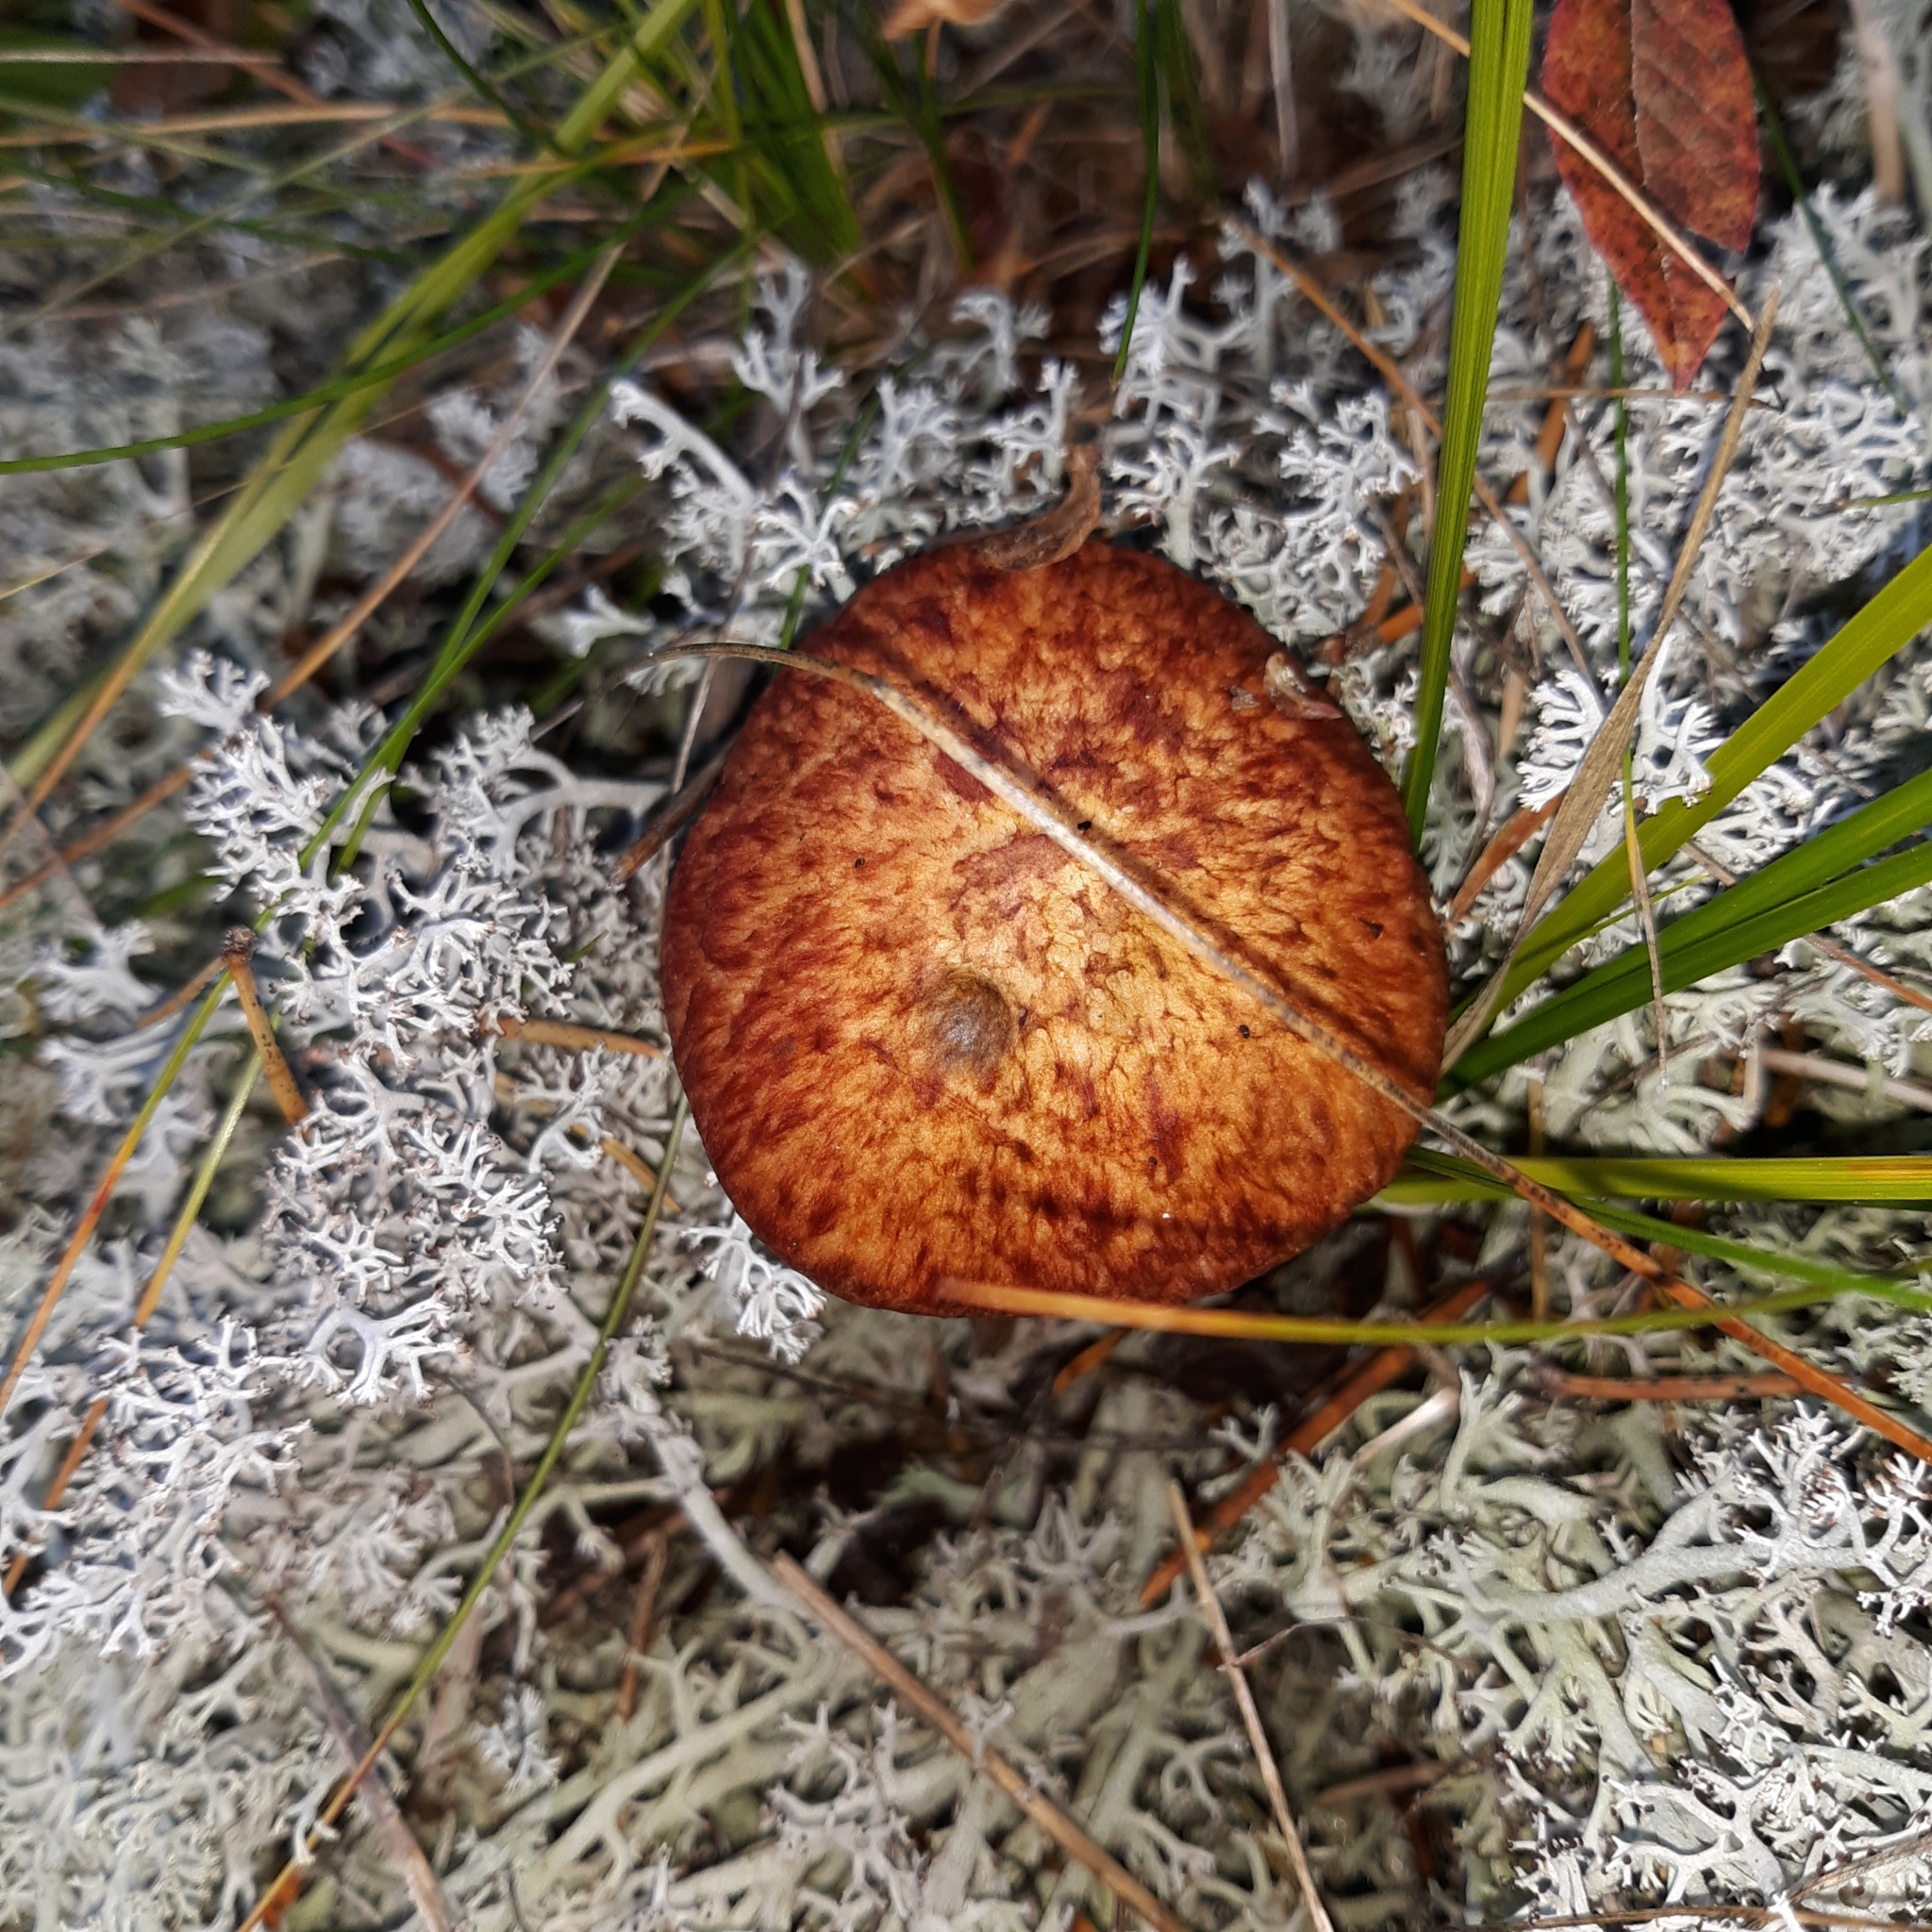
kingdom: Fungi
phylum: Basidiomycota
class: Agaricomycetes
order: Boletales
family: Suillaceae
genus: Suillus
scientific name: Suillus spraguei
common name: Painted suillus
